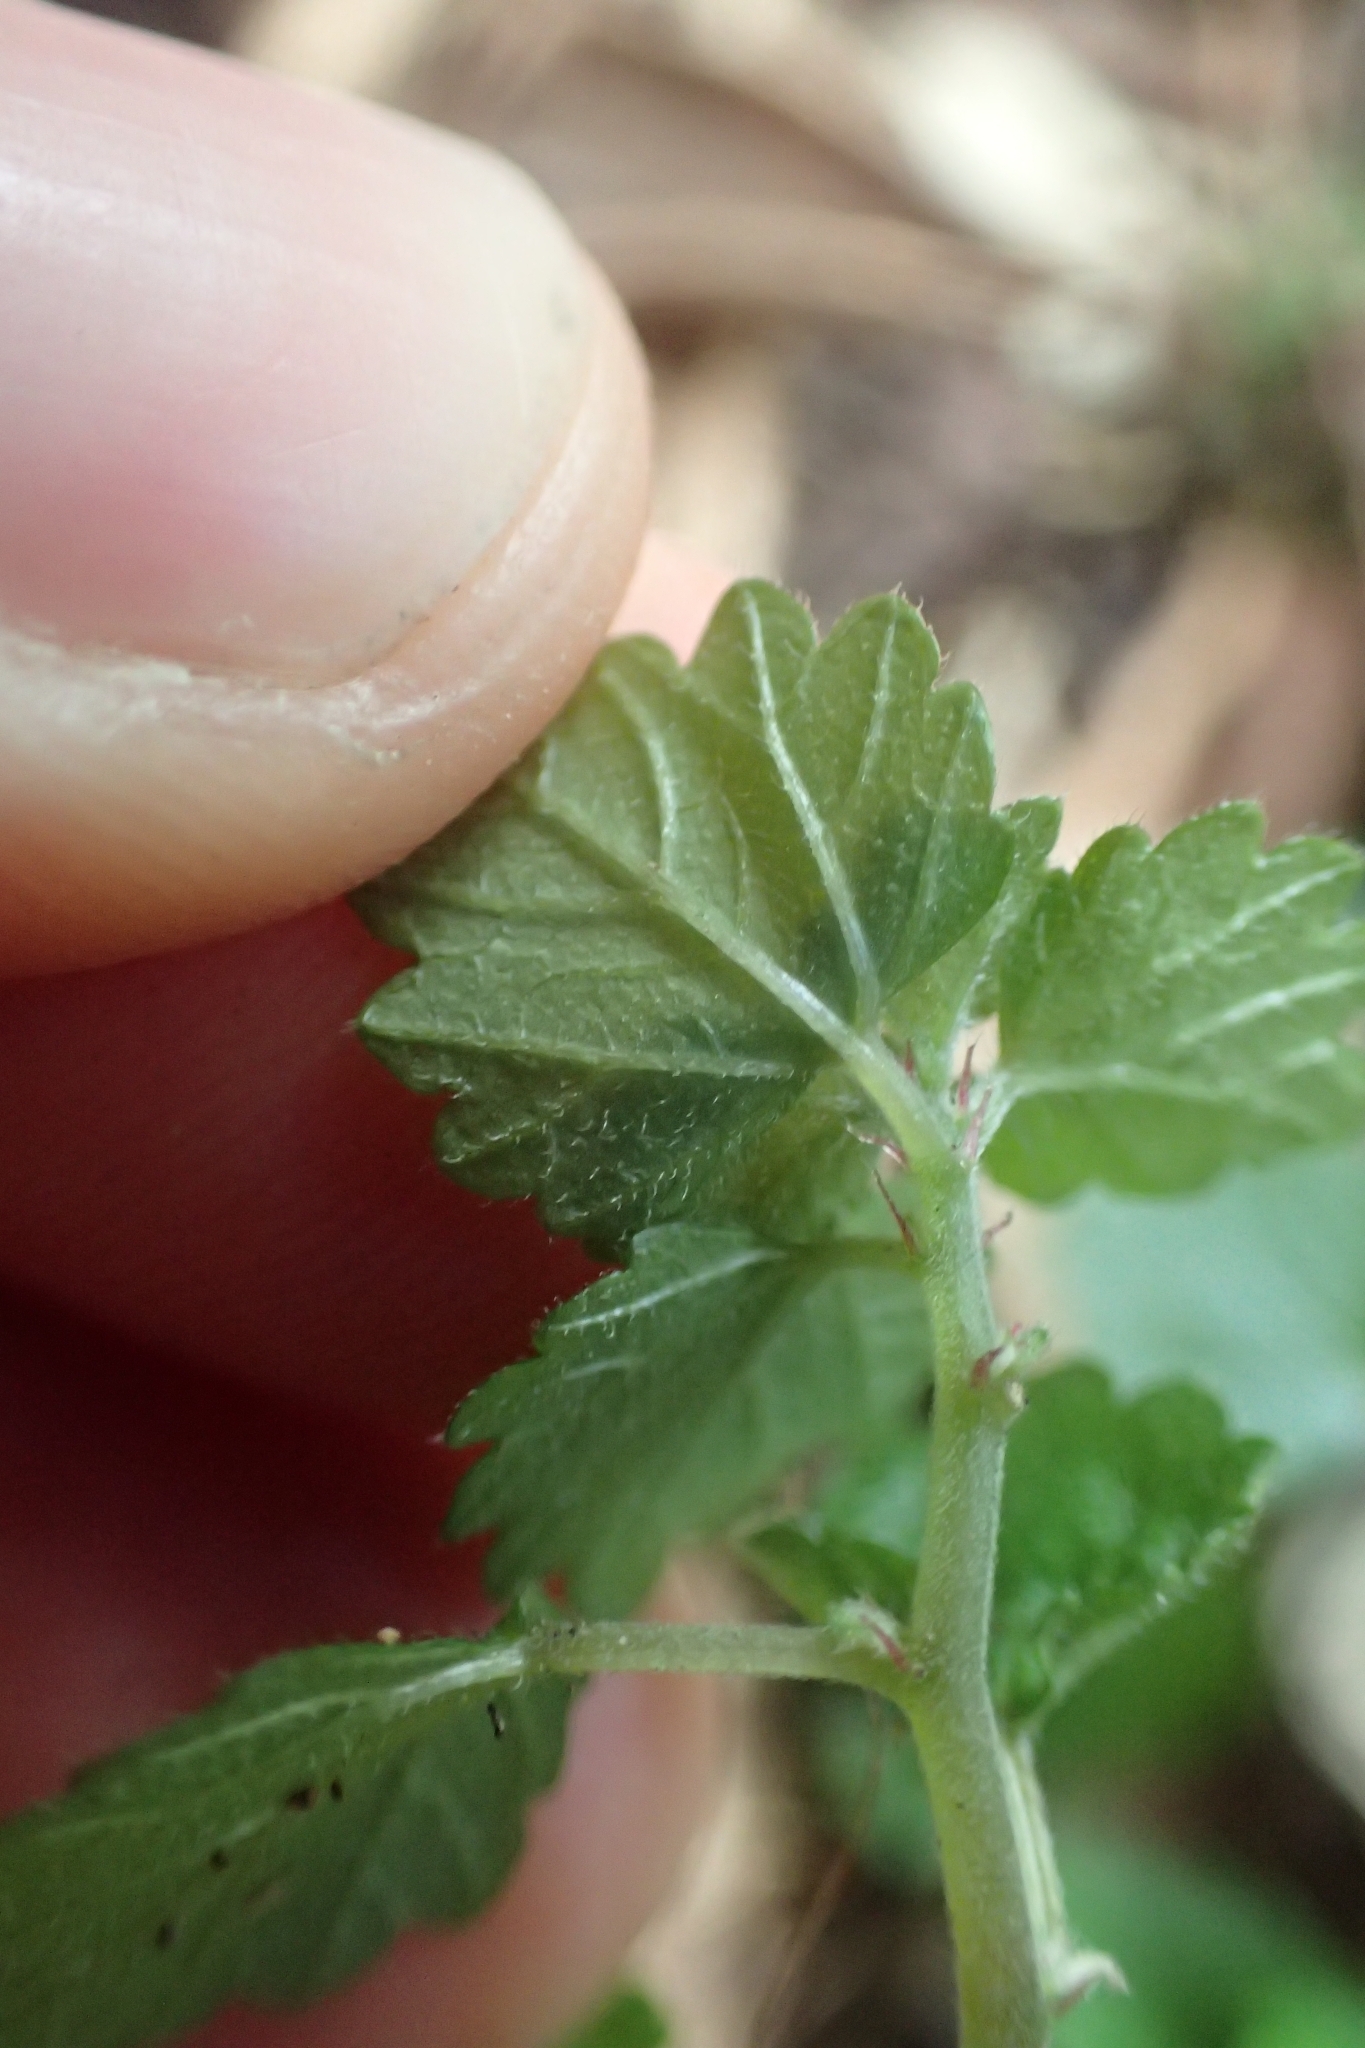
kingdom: Plantae
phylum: Tracheophyta
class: Magnoliopsida
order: Rosales
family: Urticaceae
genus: Australina
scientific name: Australina pusilla
